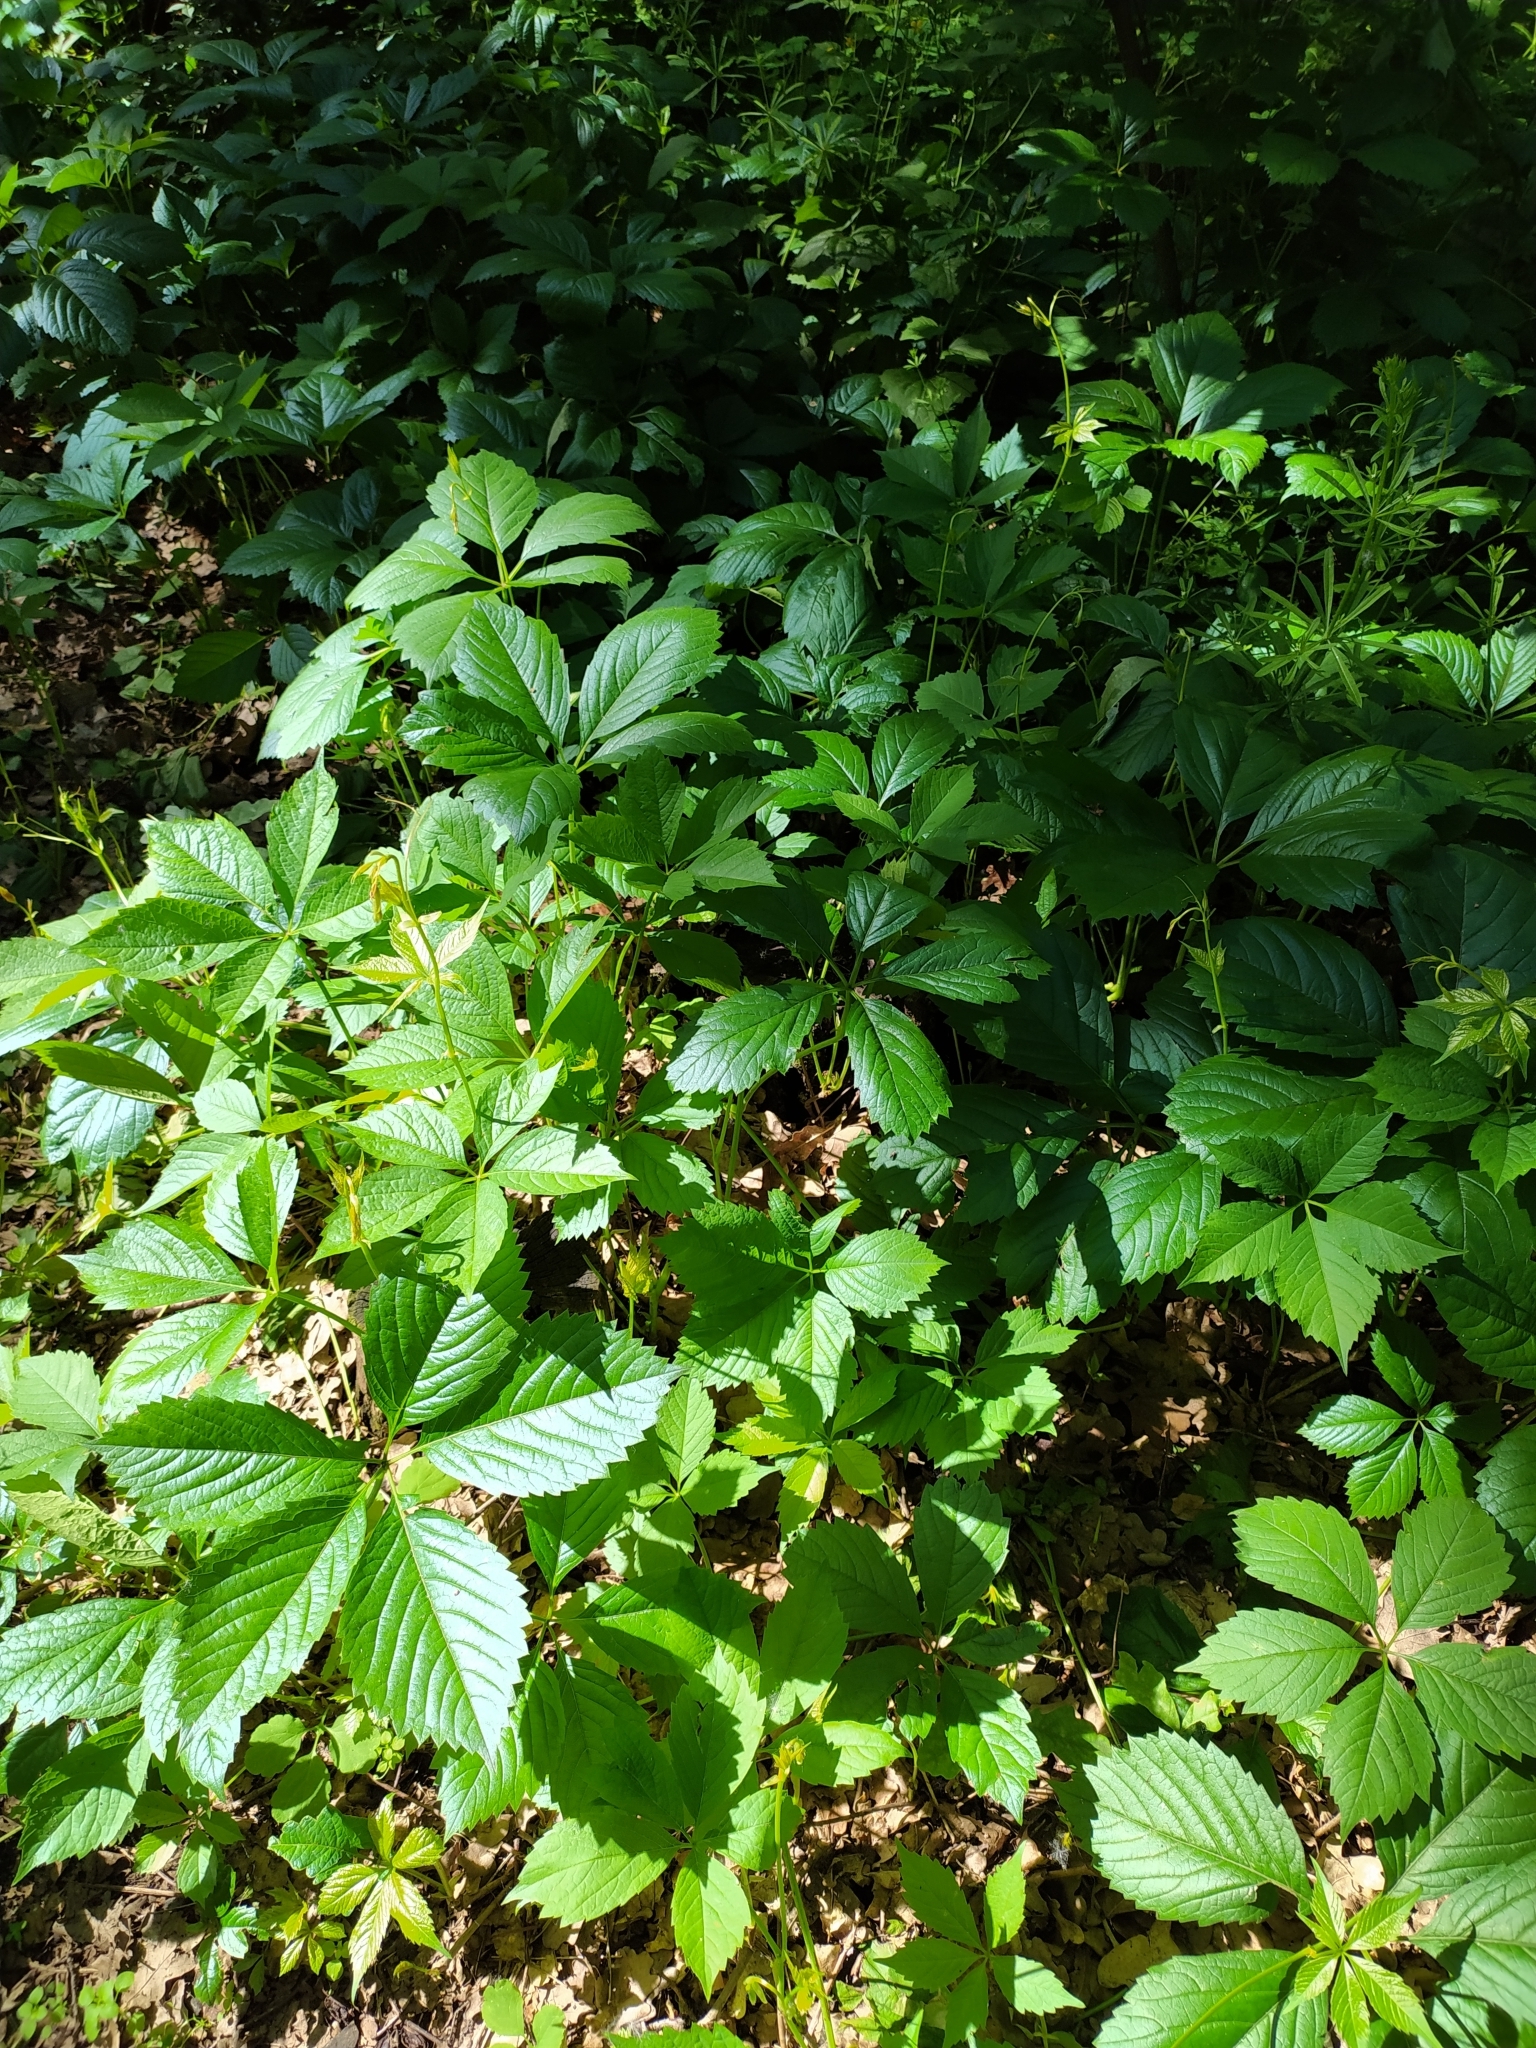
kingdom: Plantae
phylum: Tracheophyta
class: Magnoliopsida
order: Vitales
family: Vitaceae
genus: Parthenocissus
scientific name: Parthenocissus inserta
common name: False virginia-creeper
